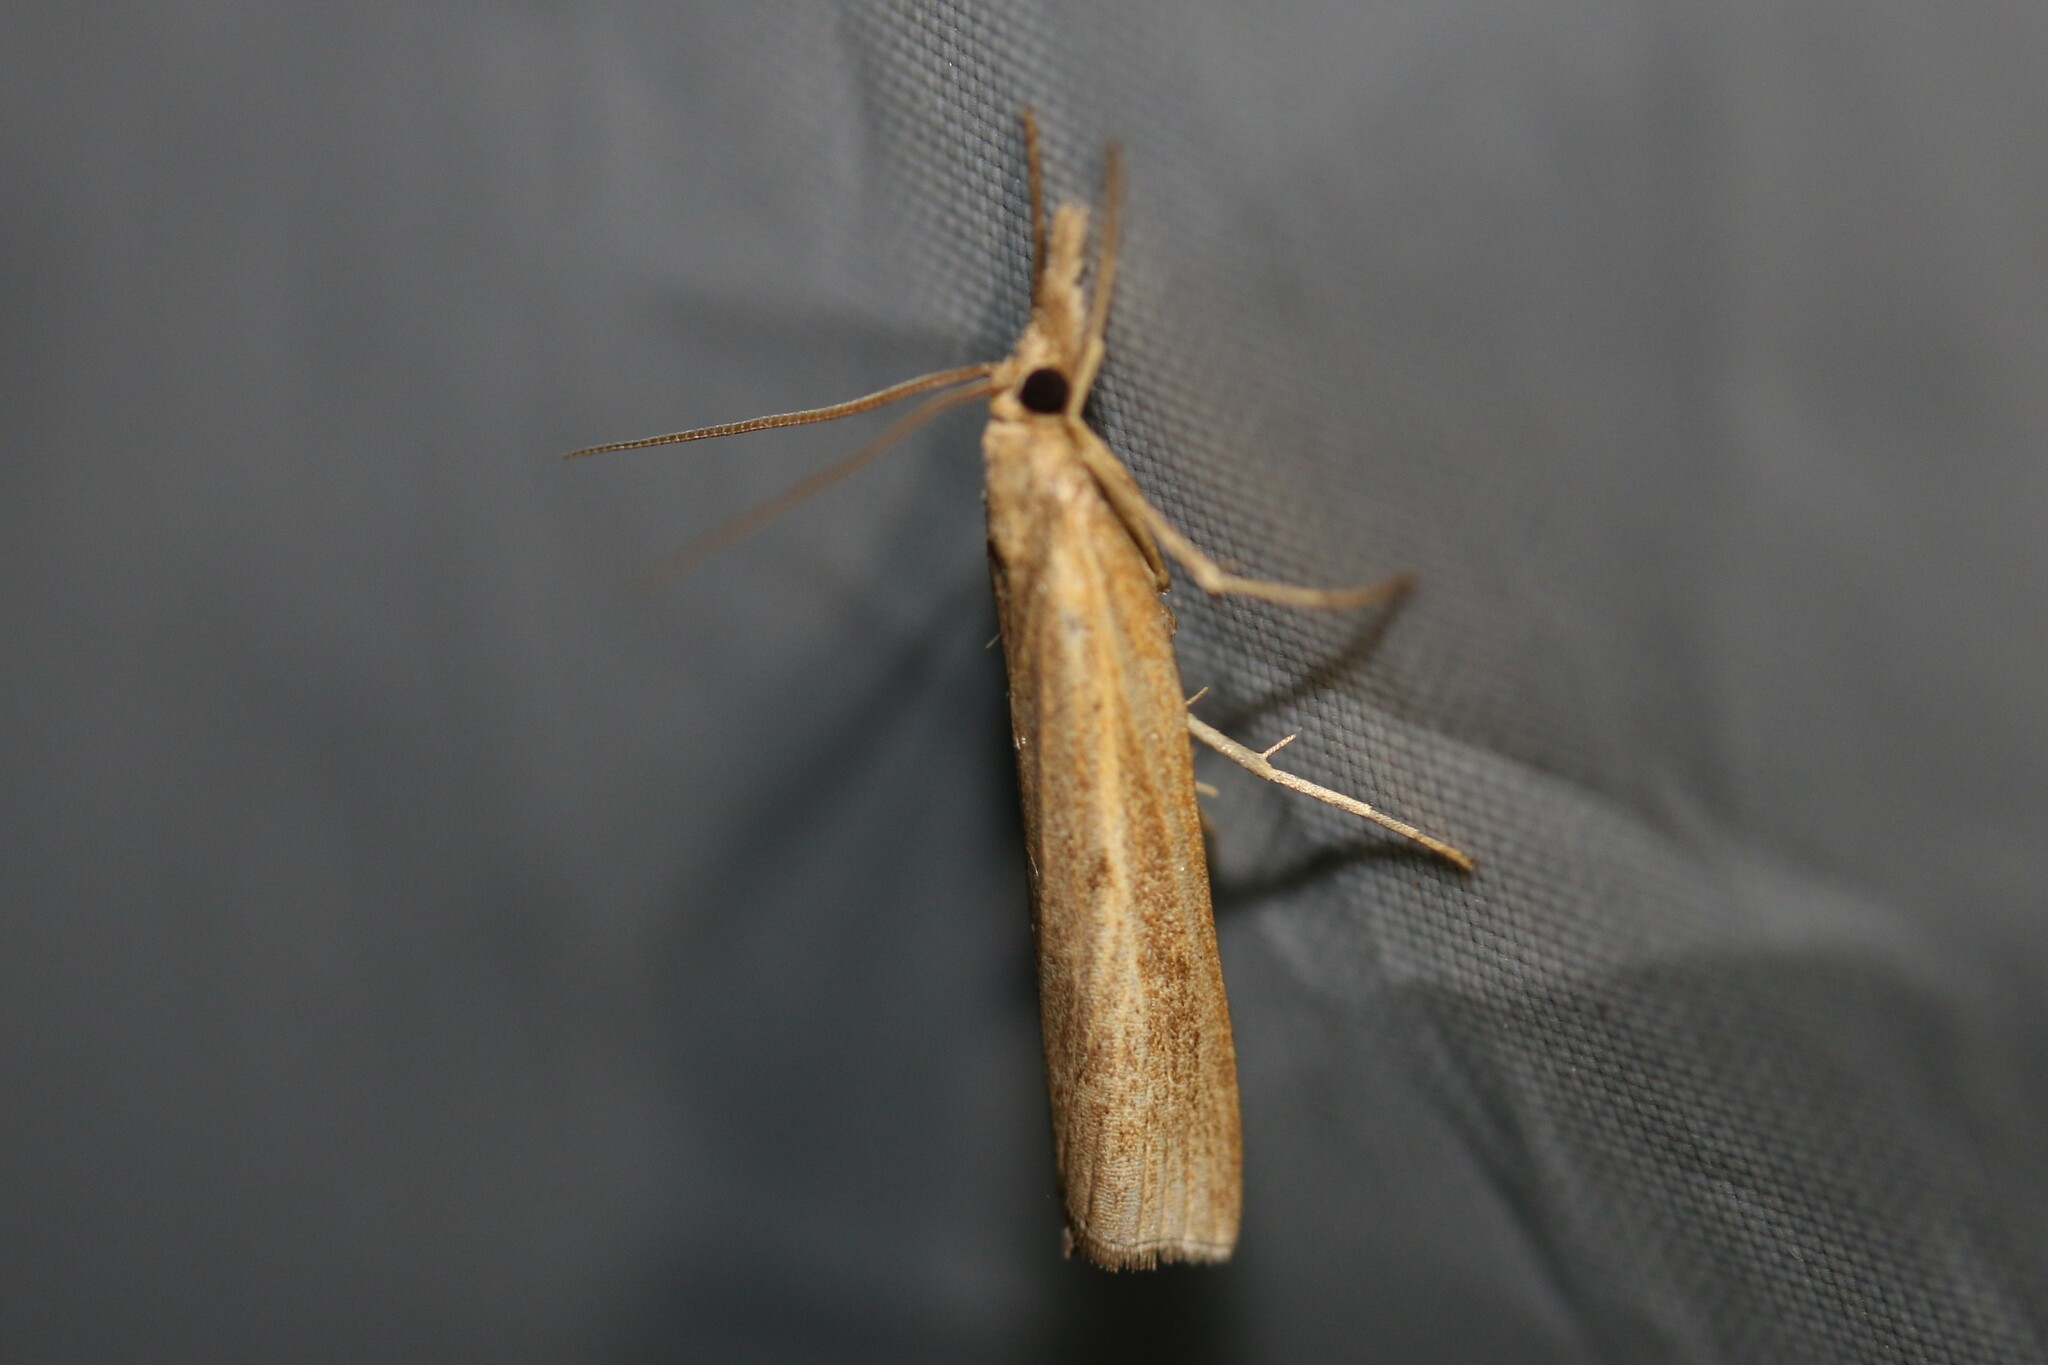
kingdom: Animalia
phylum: Arthropoda
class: Insecta
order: Lepidoptera
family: Crambidae
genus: Pediasia
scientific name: Pediasia contaminella
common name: Waste grass-veneer
